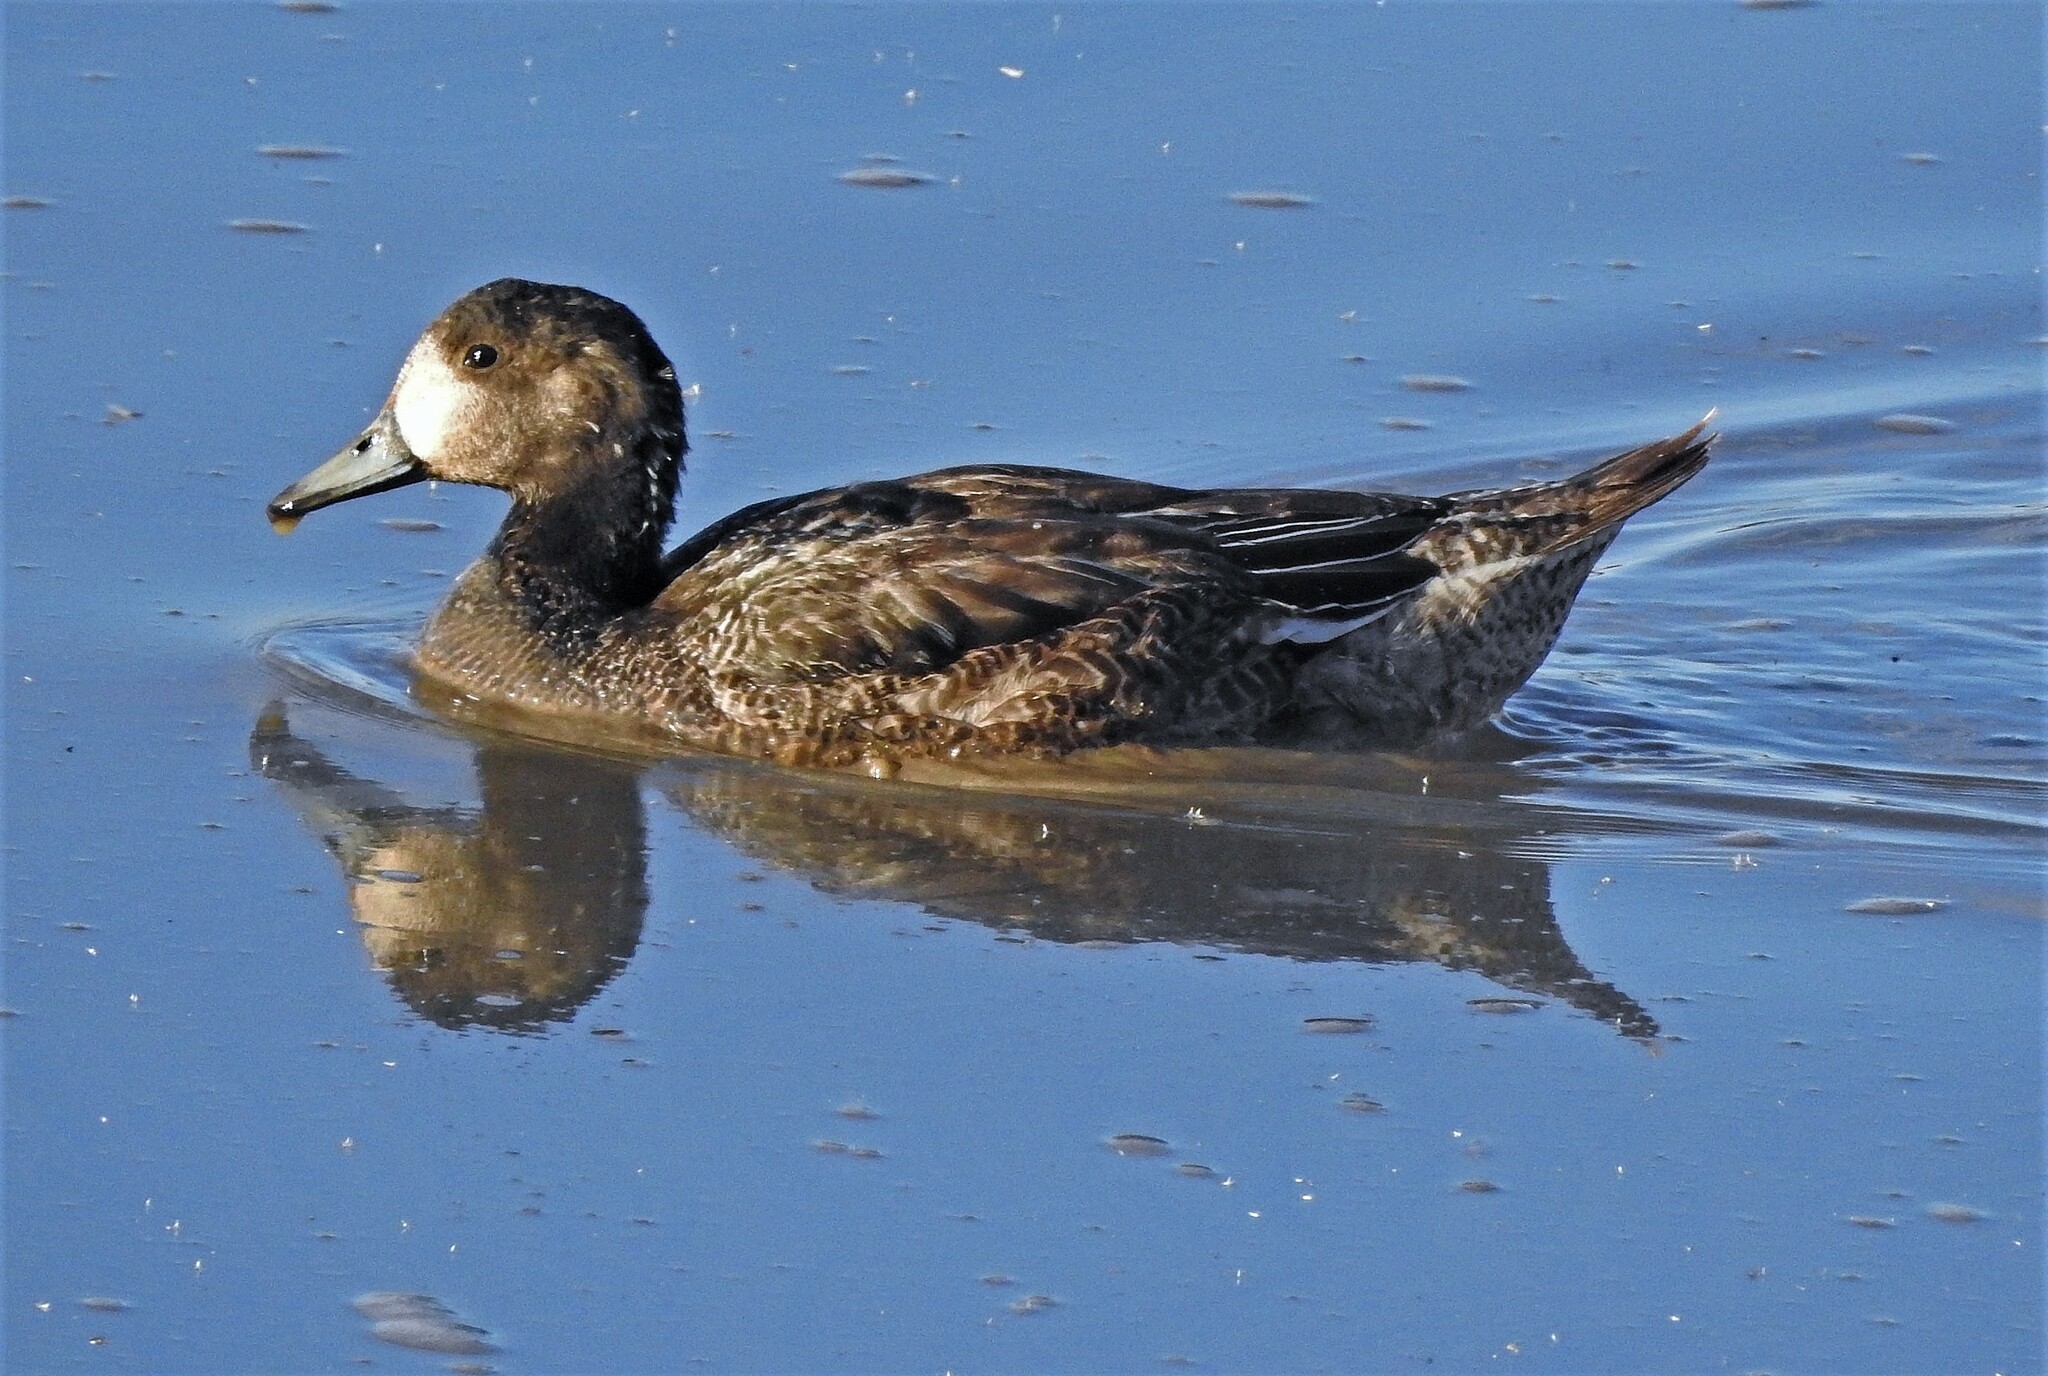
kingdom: Animalia
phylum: Chordata
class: Aves
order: Anseriformes
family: Anatidae
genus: Mareca
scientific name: Mareca sibilatrix
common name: Chiloe wigeon
